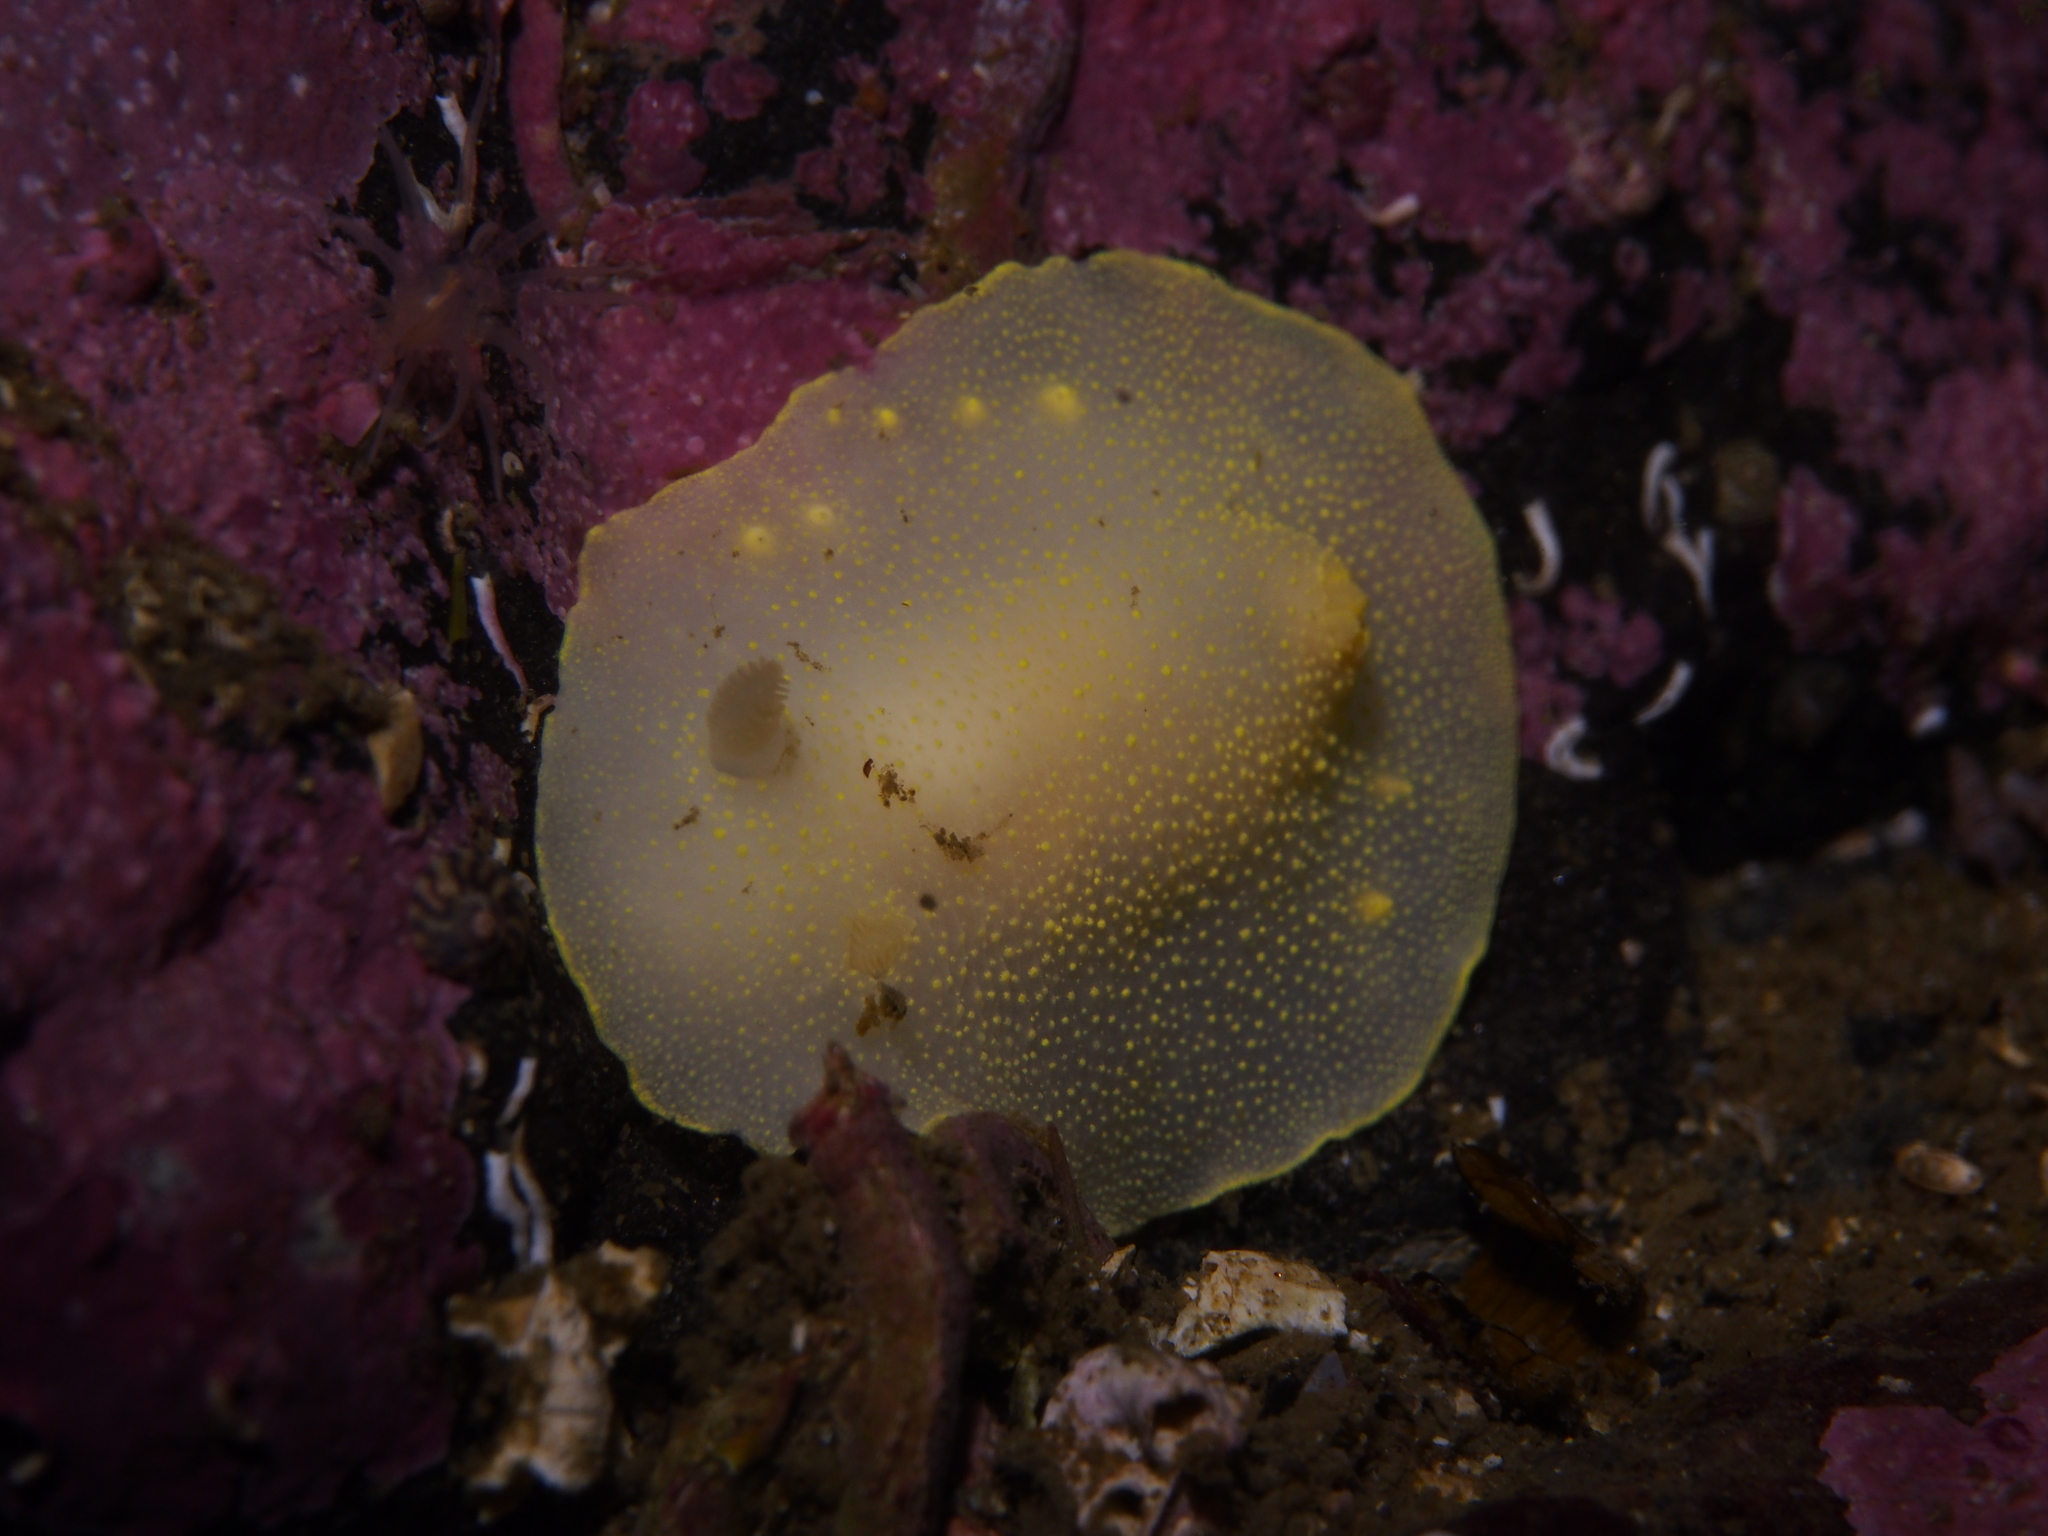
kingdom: Animalia
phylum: Mollusca
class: Gastropoda
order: Nudibranchia
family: Cadlinidae
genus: Cadlina
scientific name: Cadlina laevis
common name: White atlantic cadlina
